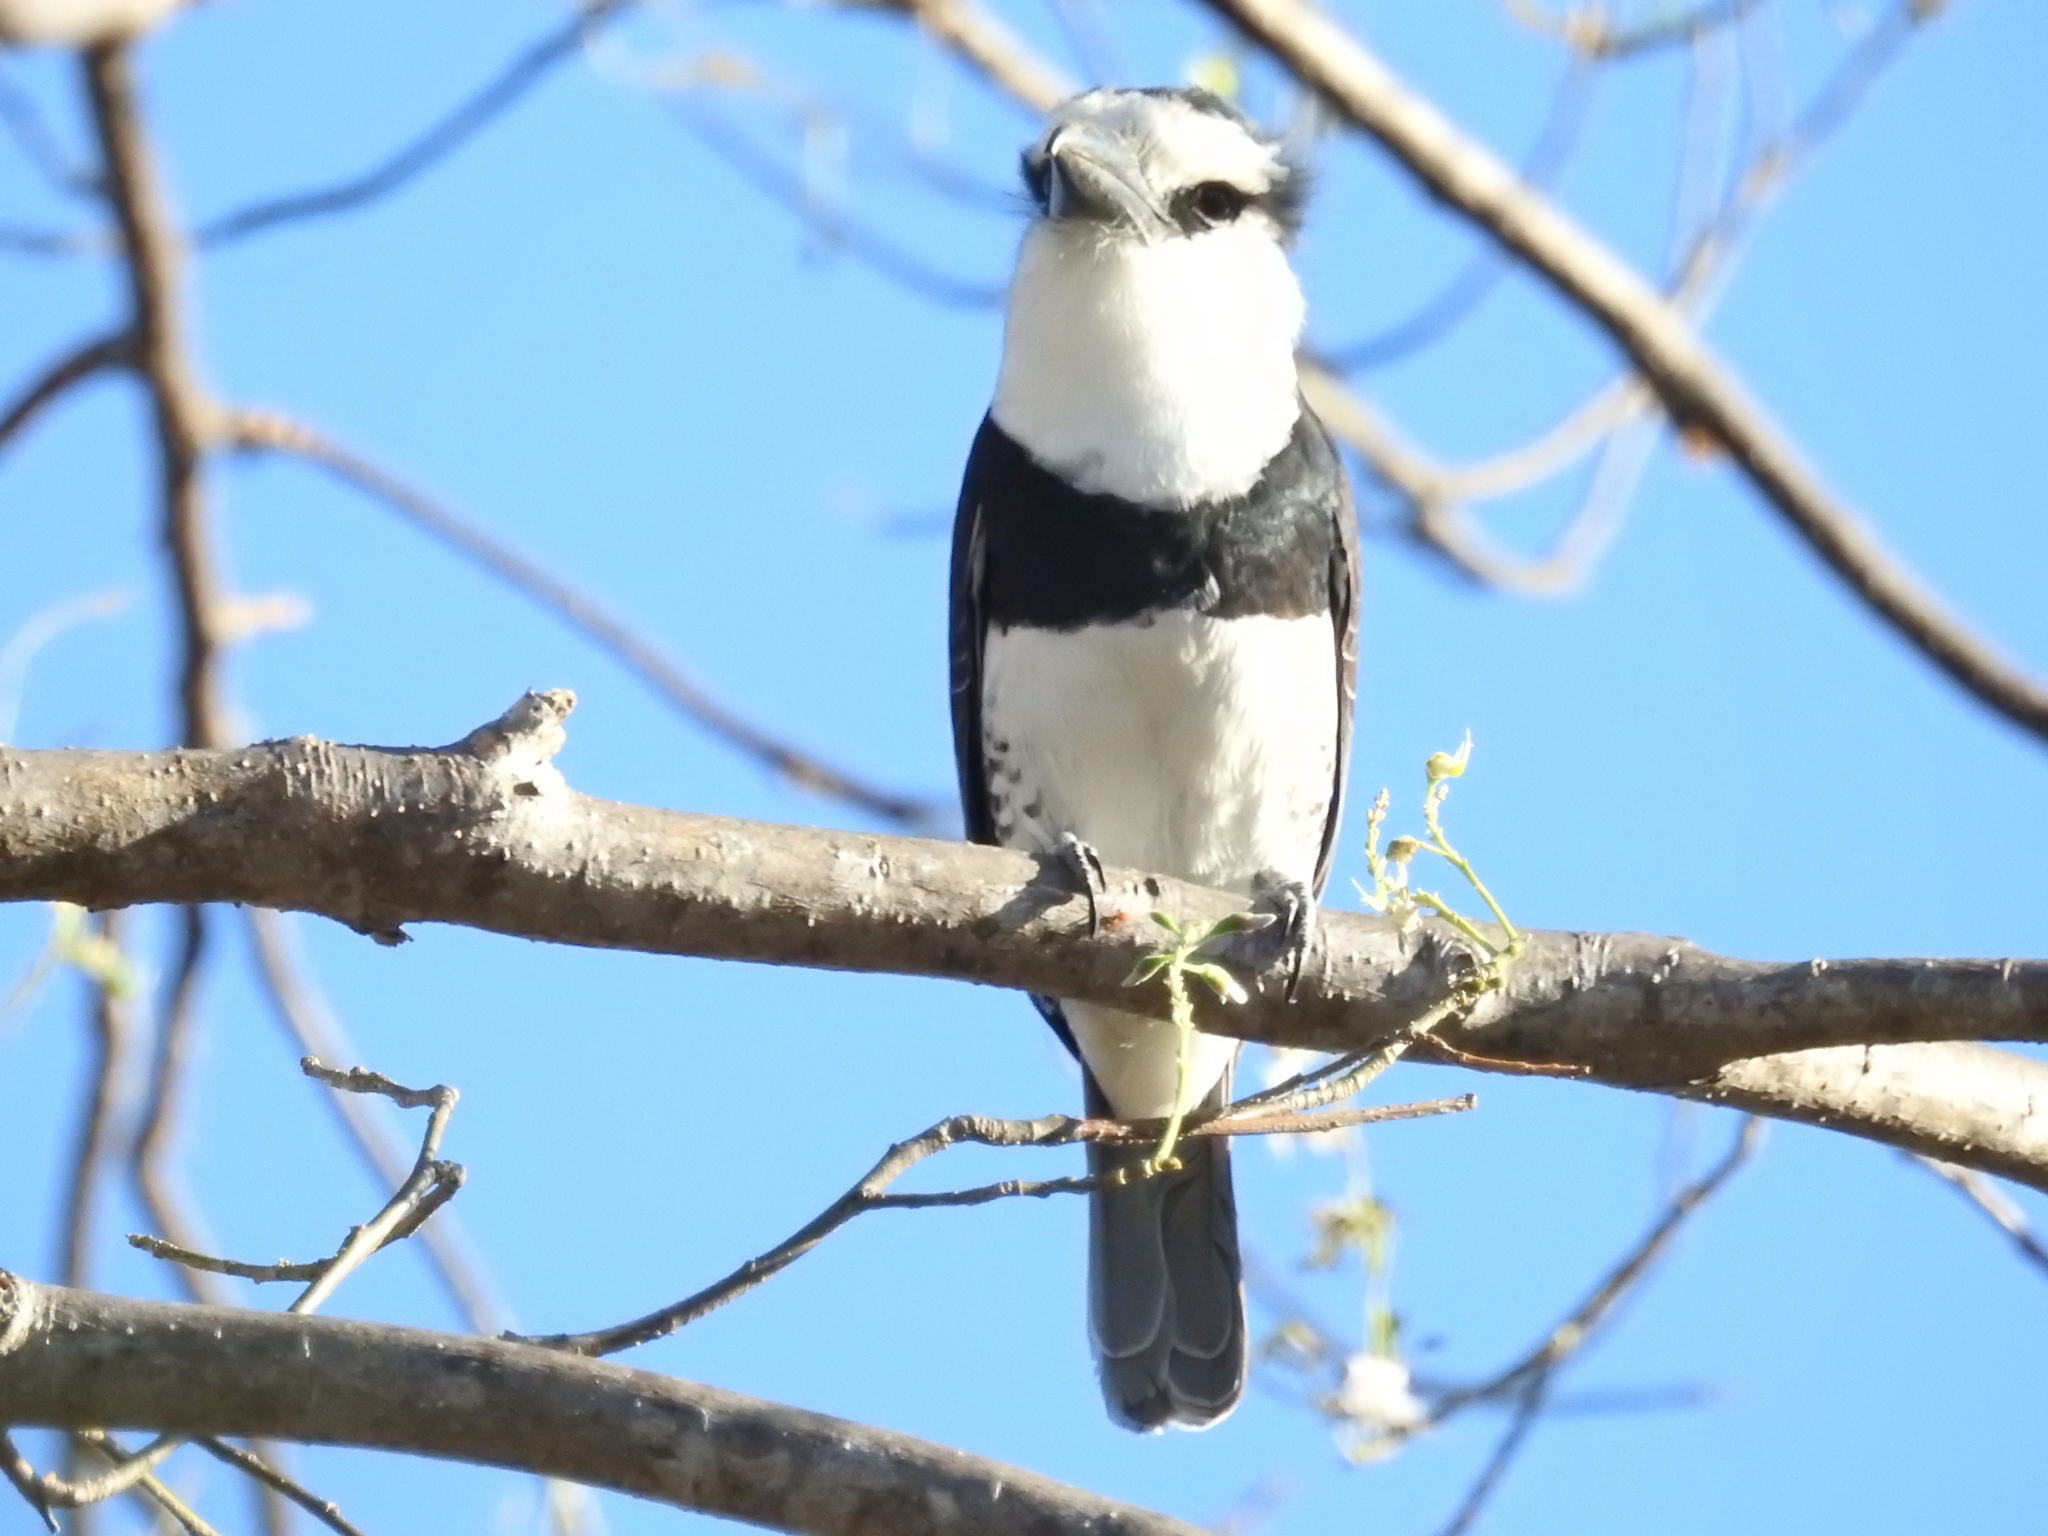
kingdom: Animalia
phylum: Chordata
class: Aves
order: Piciformes
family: Bucconidae
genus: Notharchus
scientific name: Notharchus hyperrhynchus
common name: White-necked puffbird
